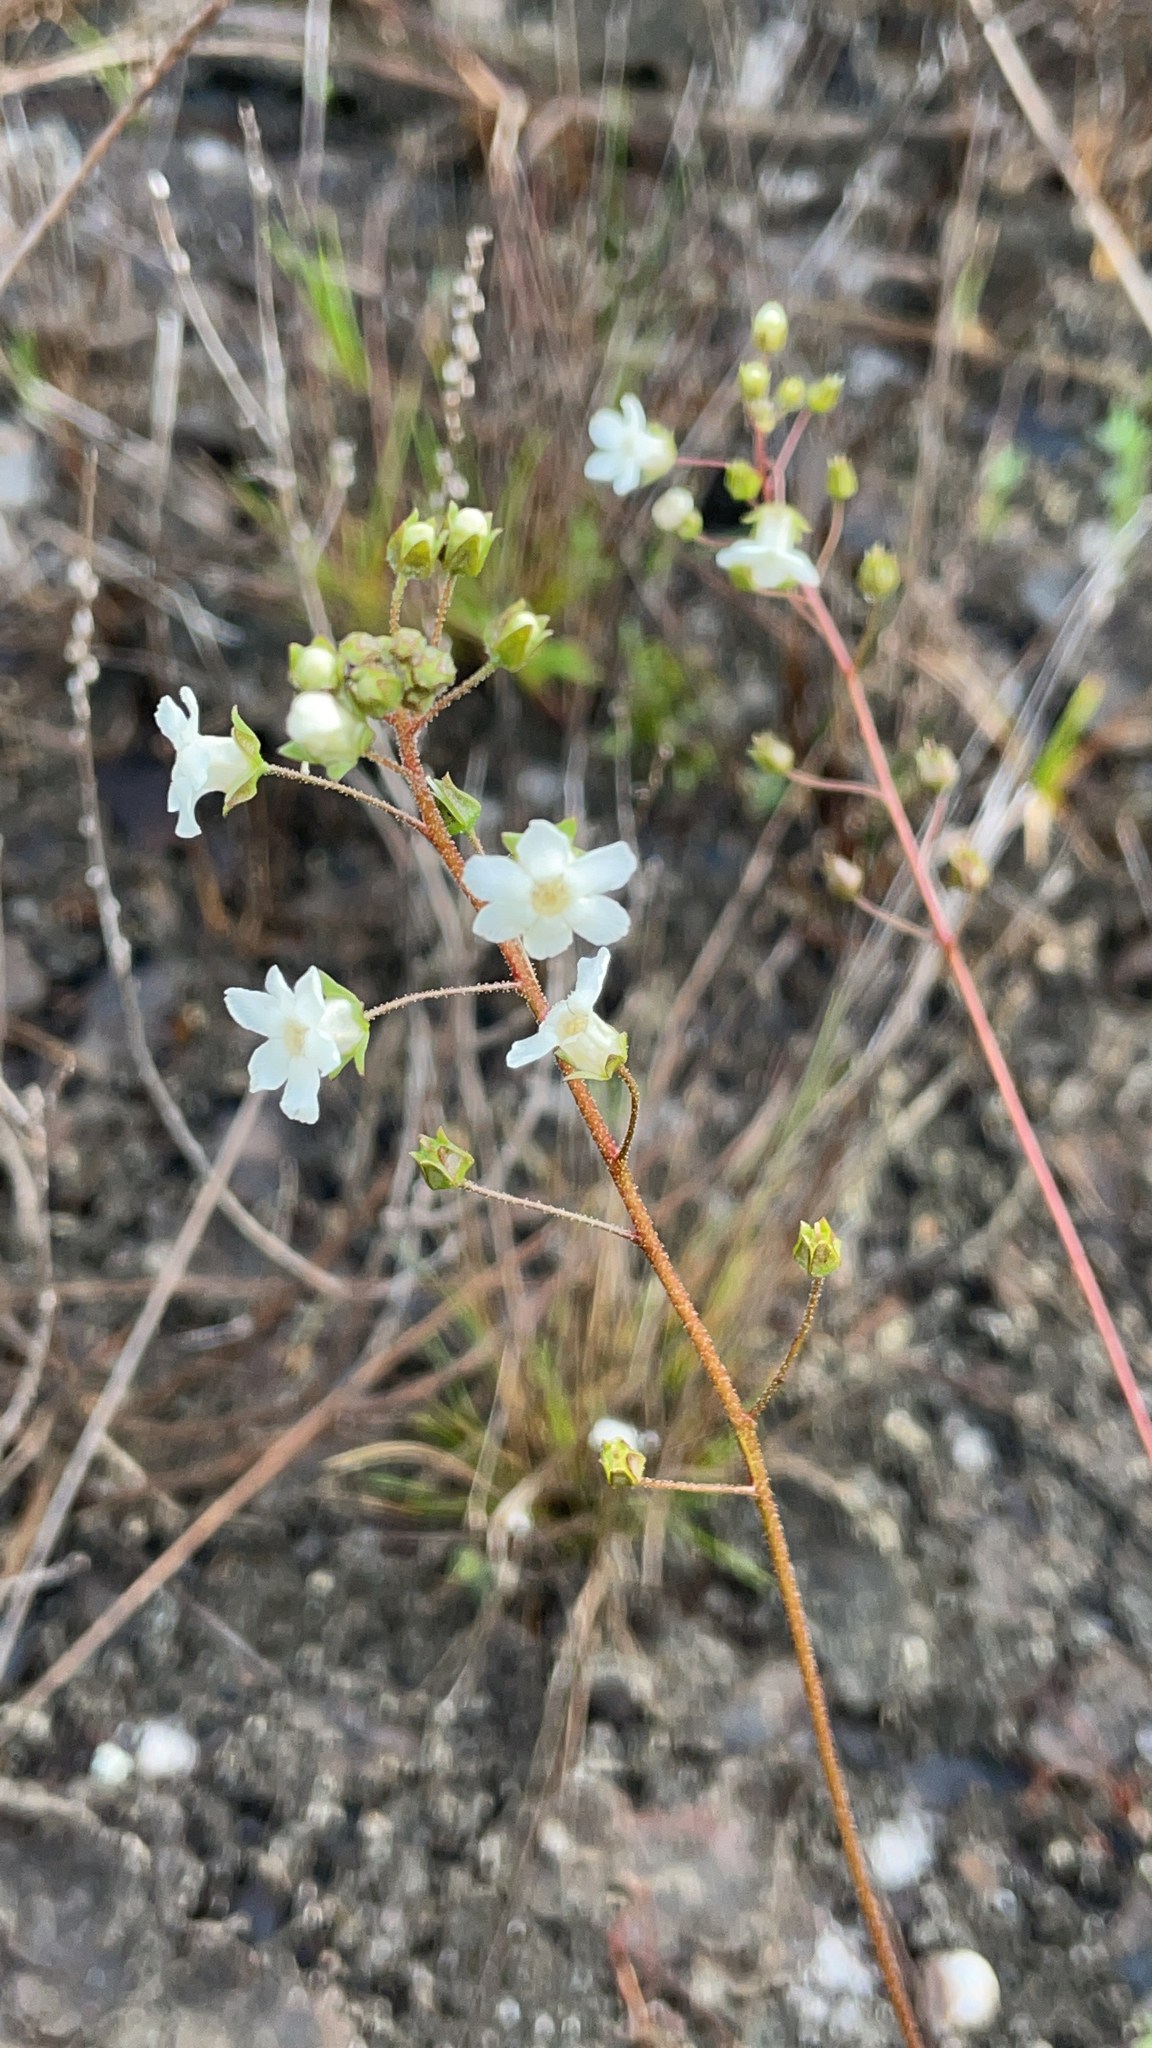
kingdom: Plantae
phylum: Tracheophyta
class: Magnoliopsida
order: Ericales
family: Primulaceae
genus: Samolus
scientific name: Samolus ebracteatus
